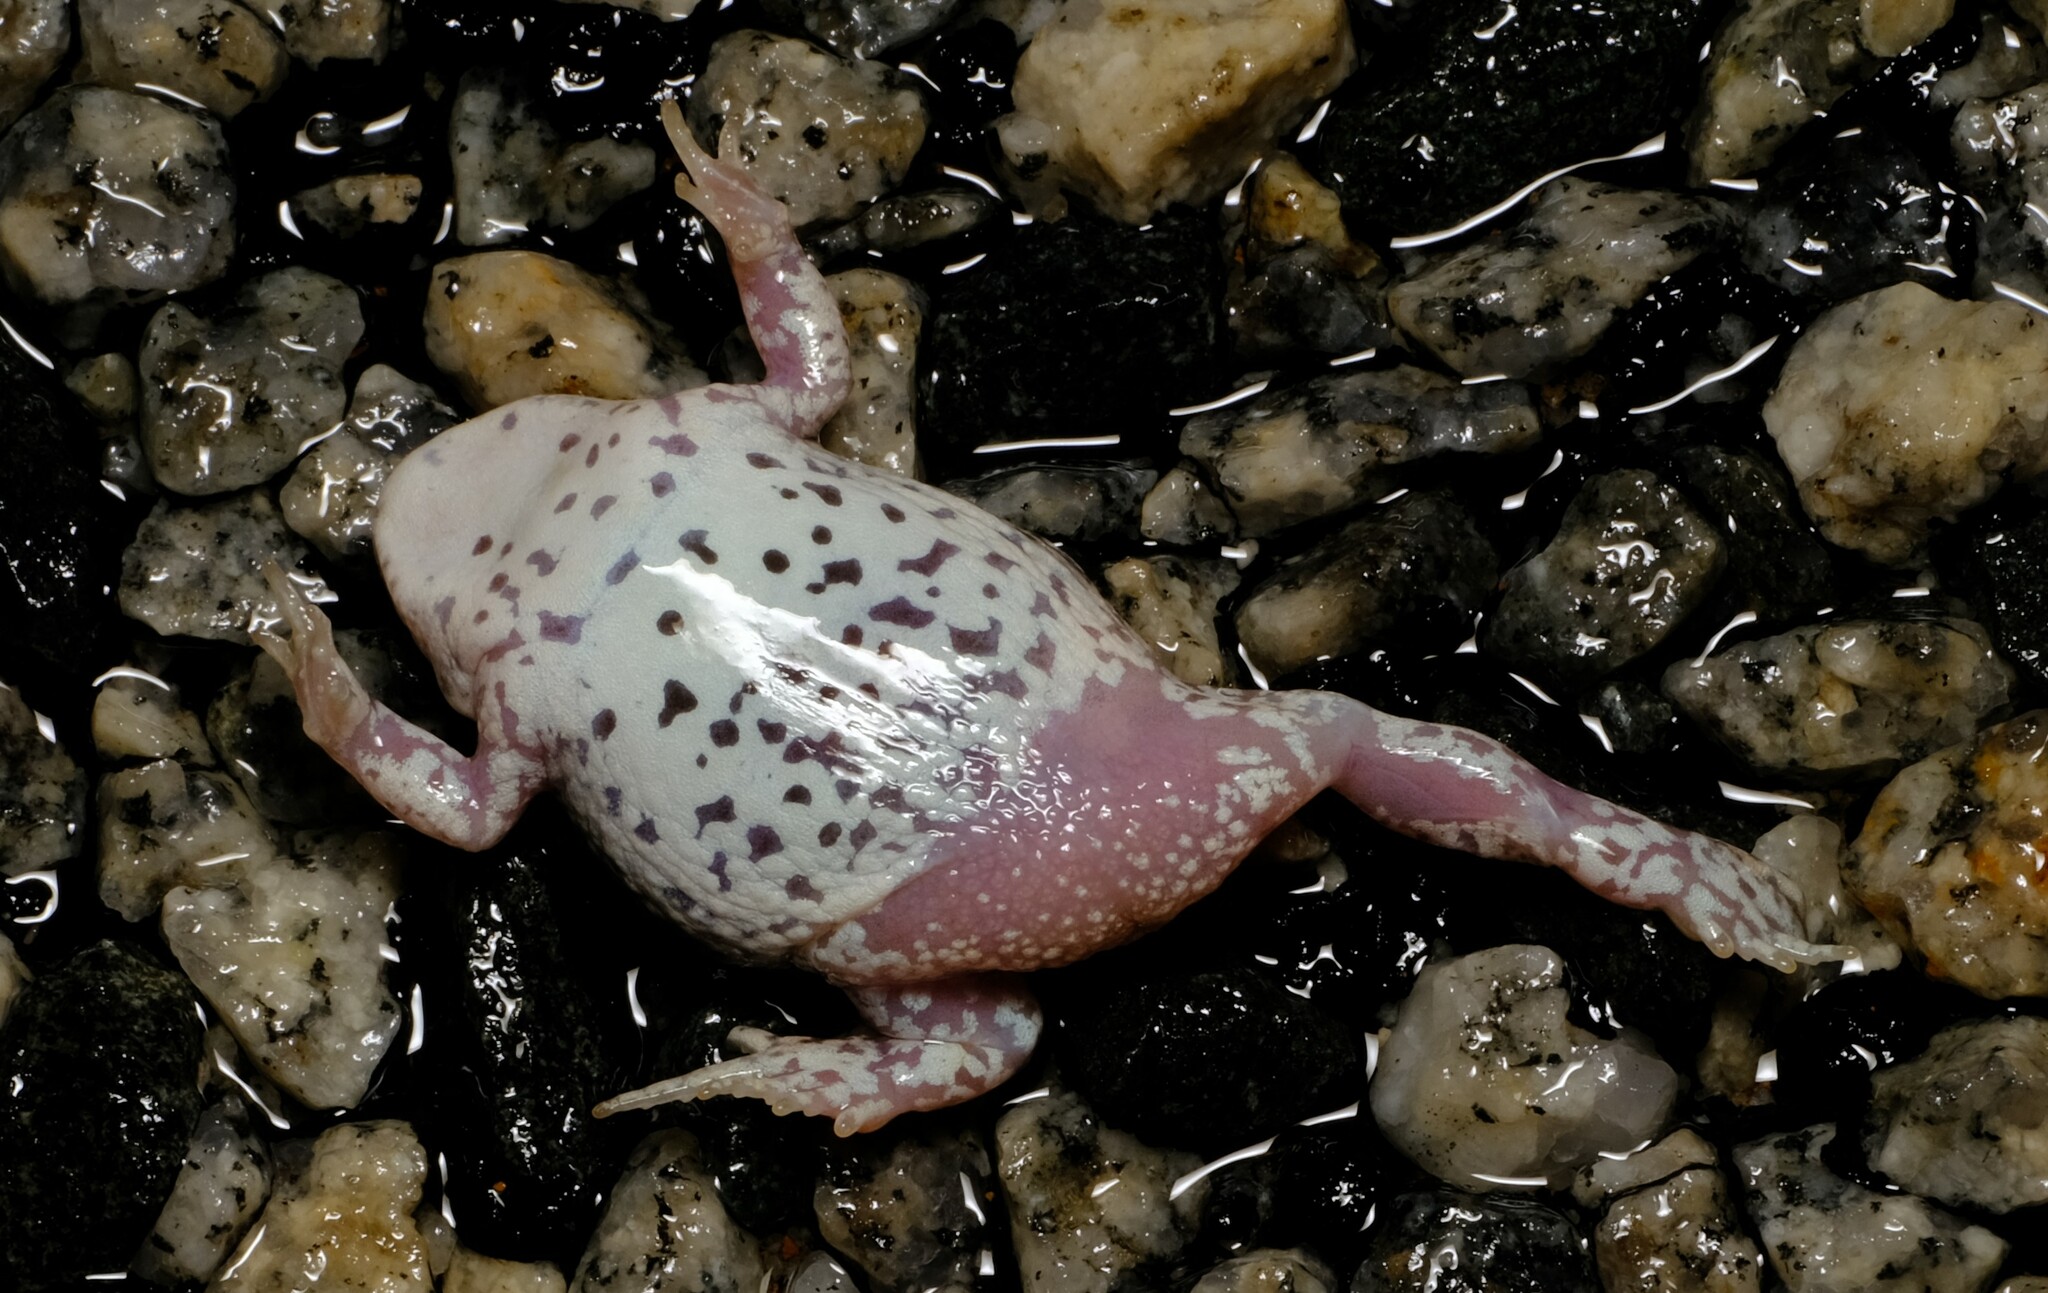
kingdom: Animalia
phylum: Chordata
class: Amphibia
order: Anura
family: Myobatrachidae
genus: Pseudophryne
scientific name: Pseudophryne guentheri
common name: Günther’s toadlet
